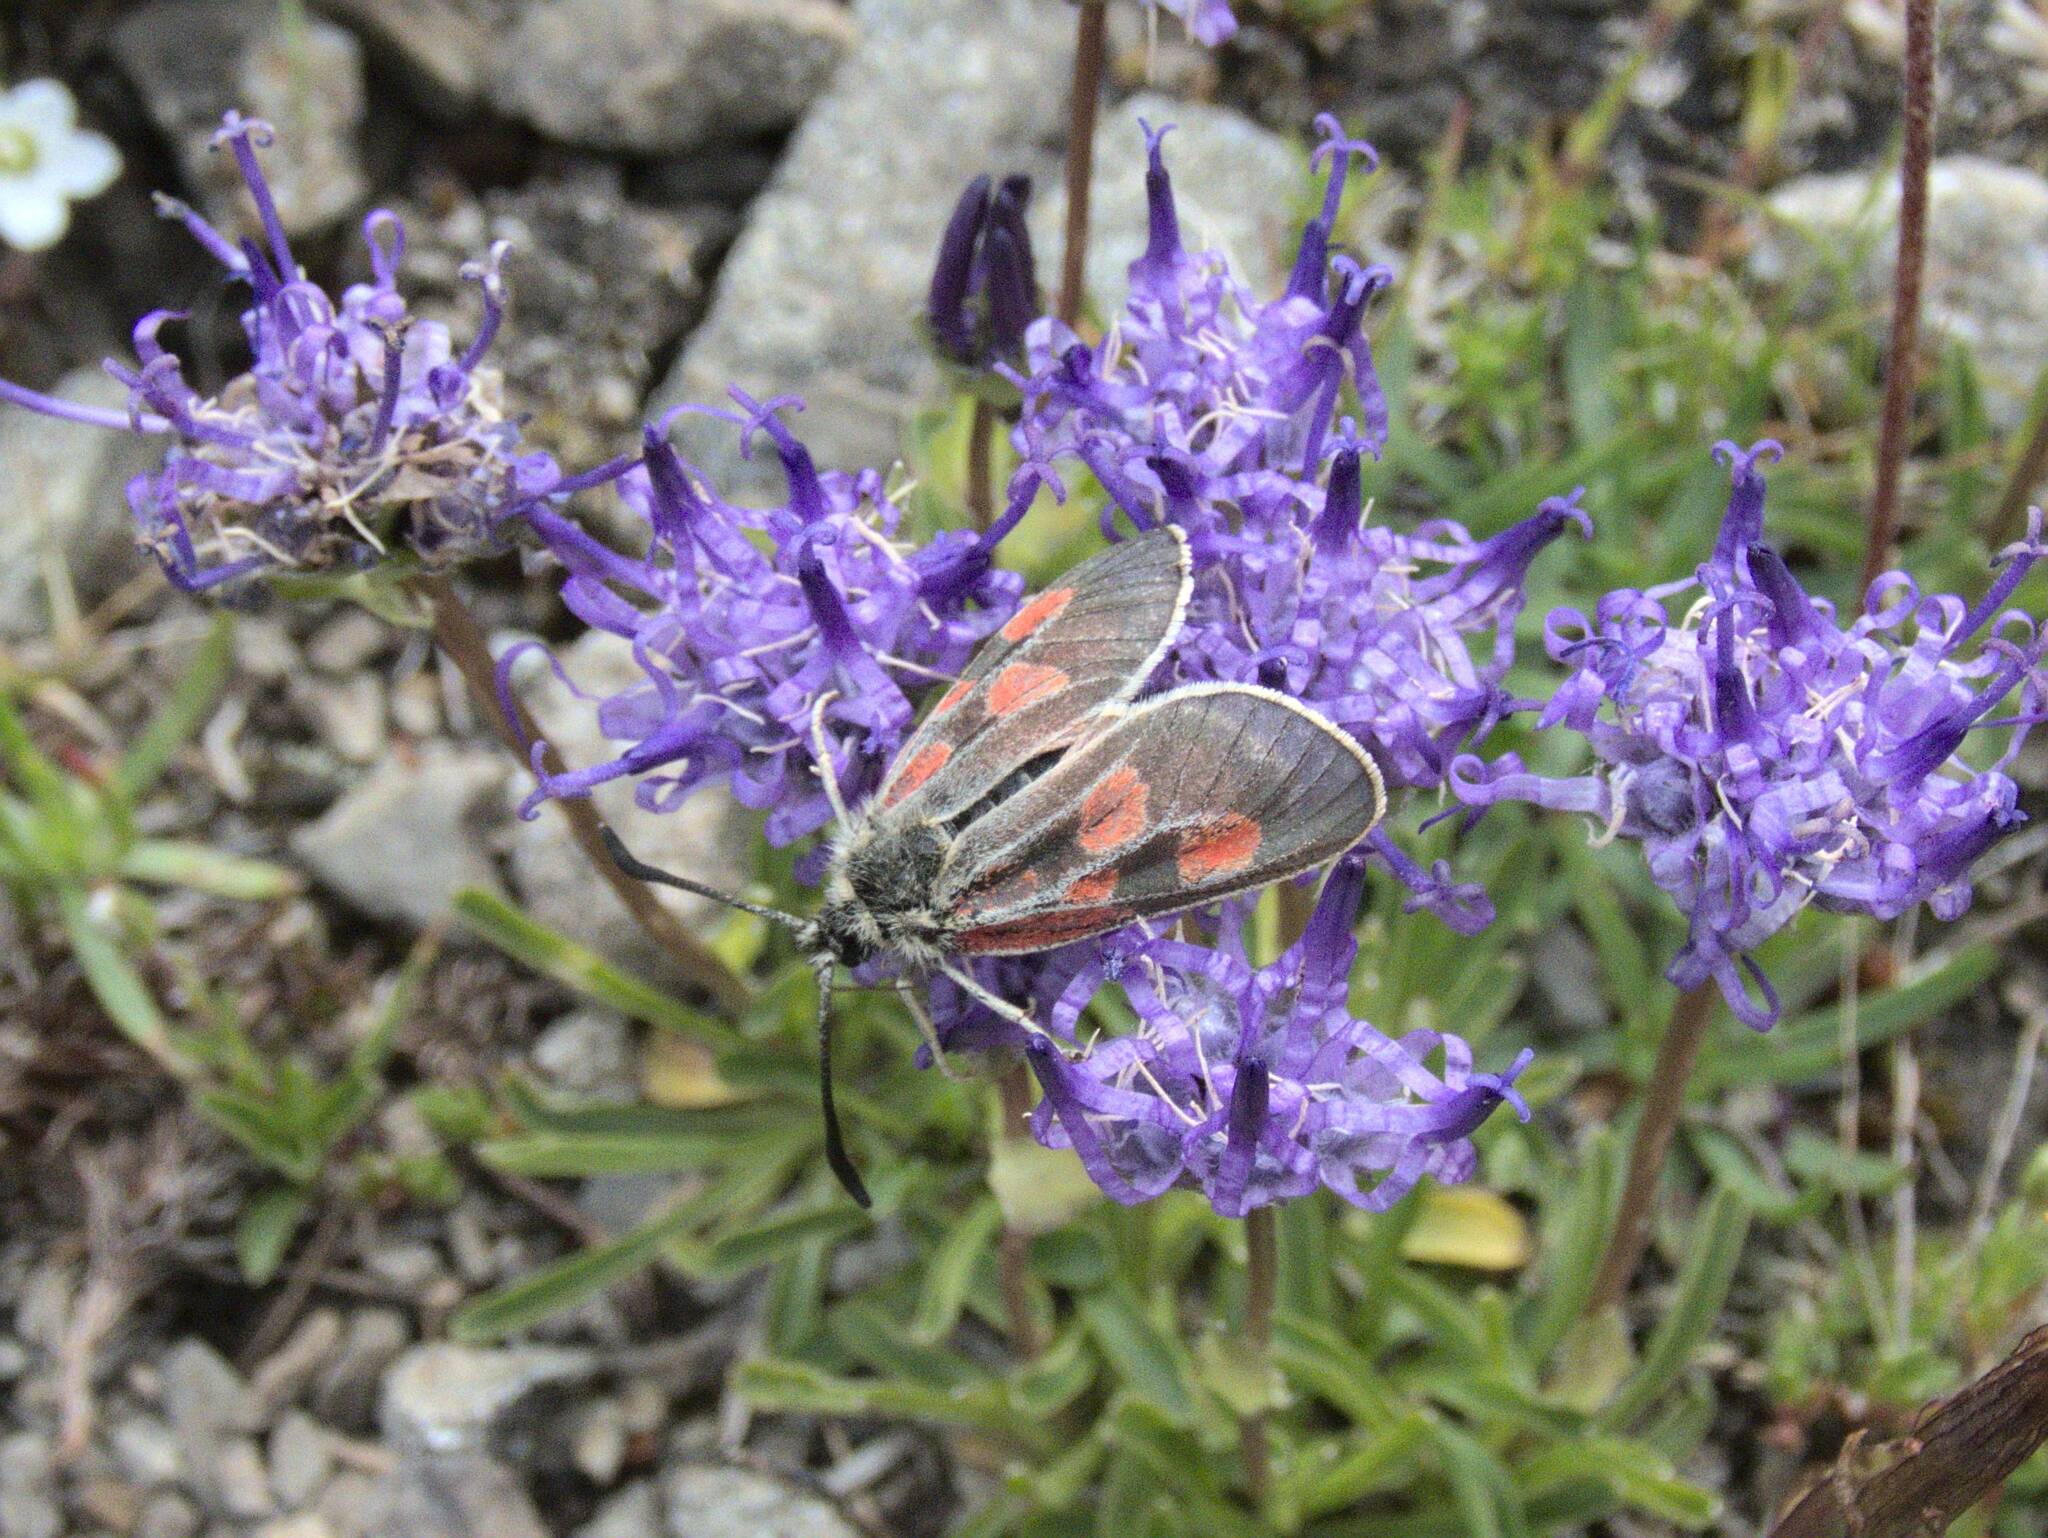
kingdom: Animalia
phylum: Arthropoda
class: Insecta
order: Lepidoptera
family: Zygaenidae
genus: Zygaena
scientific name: Zygaena exulans
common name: Scotch burnet
